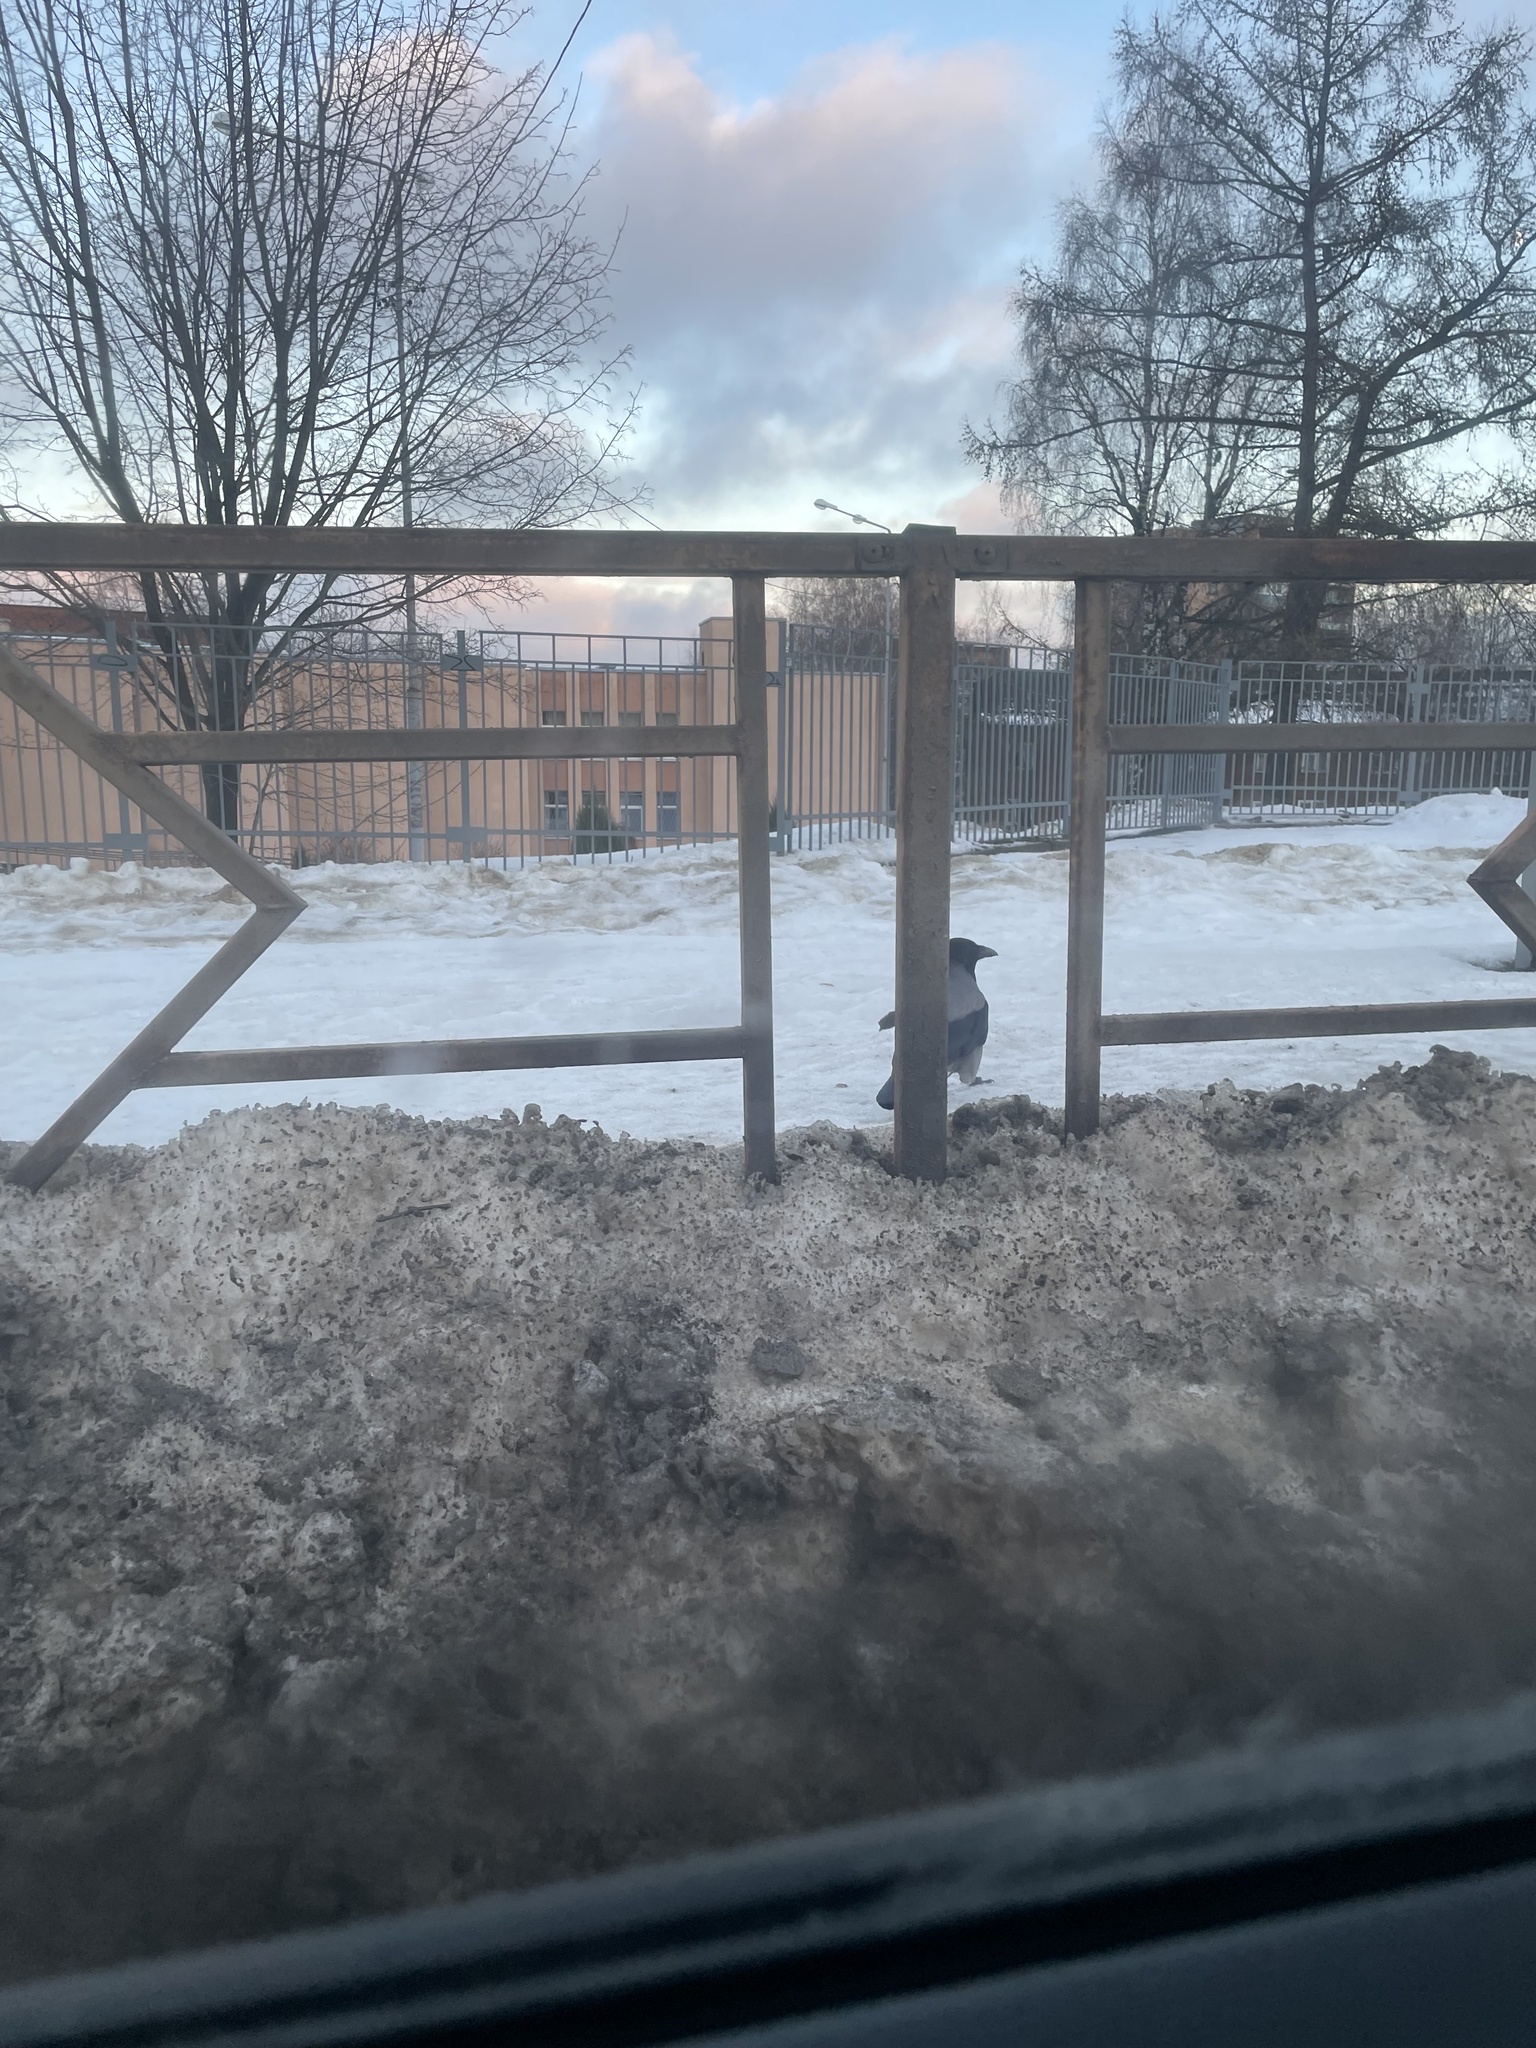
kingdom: Animalia
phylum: Chordata
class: Aves
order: Passeriformes
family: Corvidae
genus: Corvus
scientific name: Corvus cornix
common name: Hooded crow
